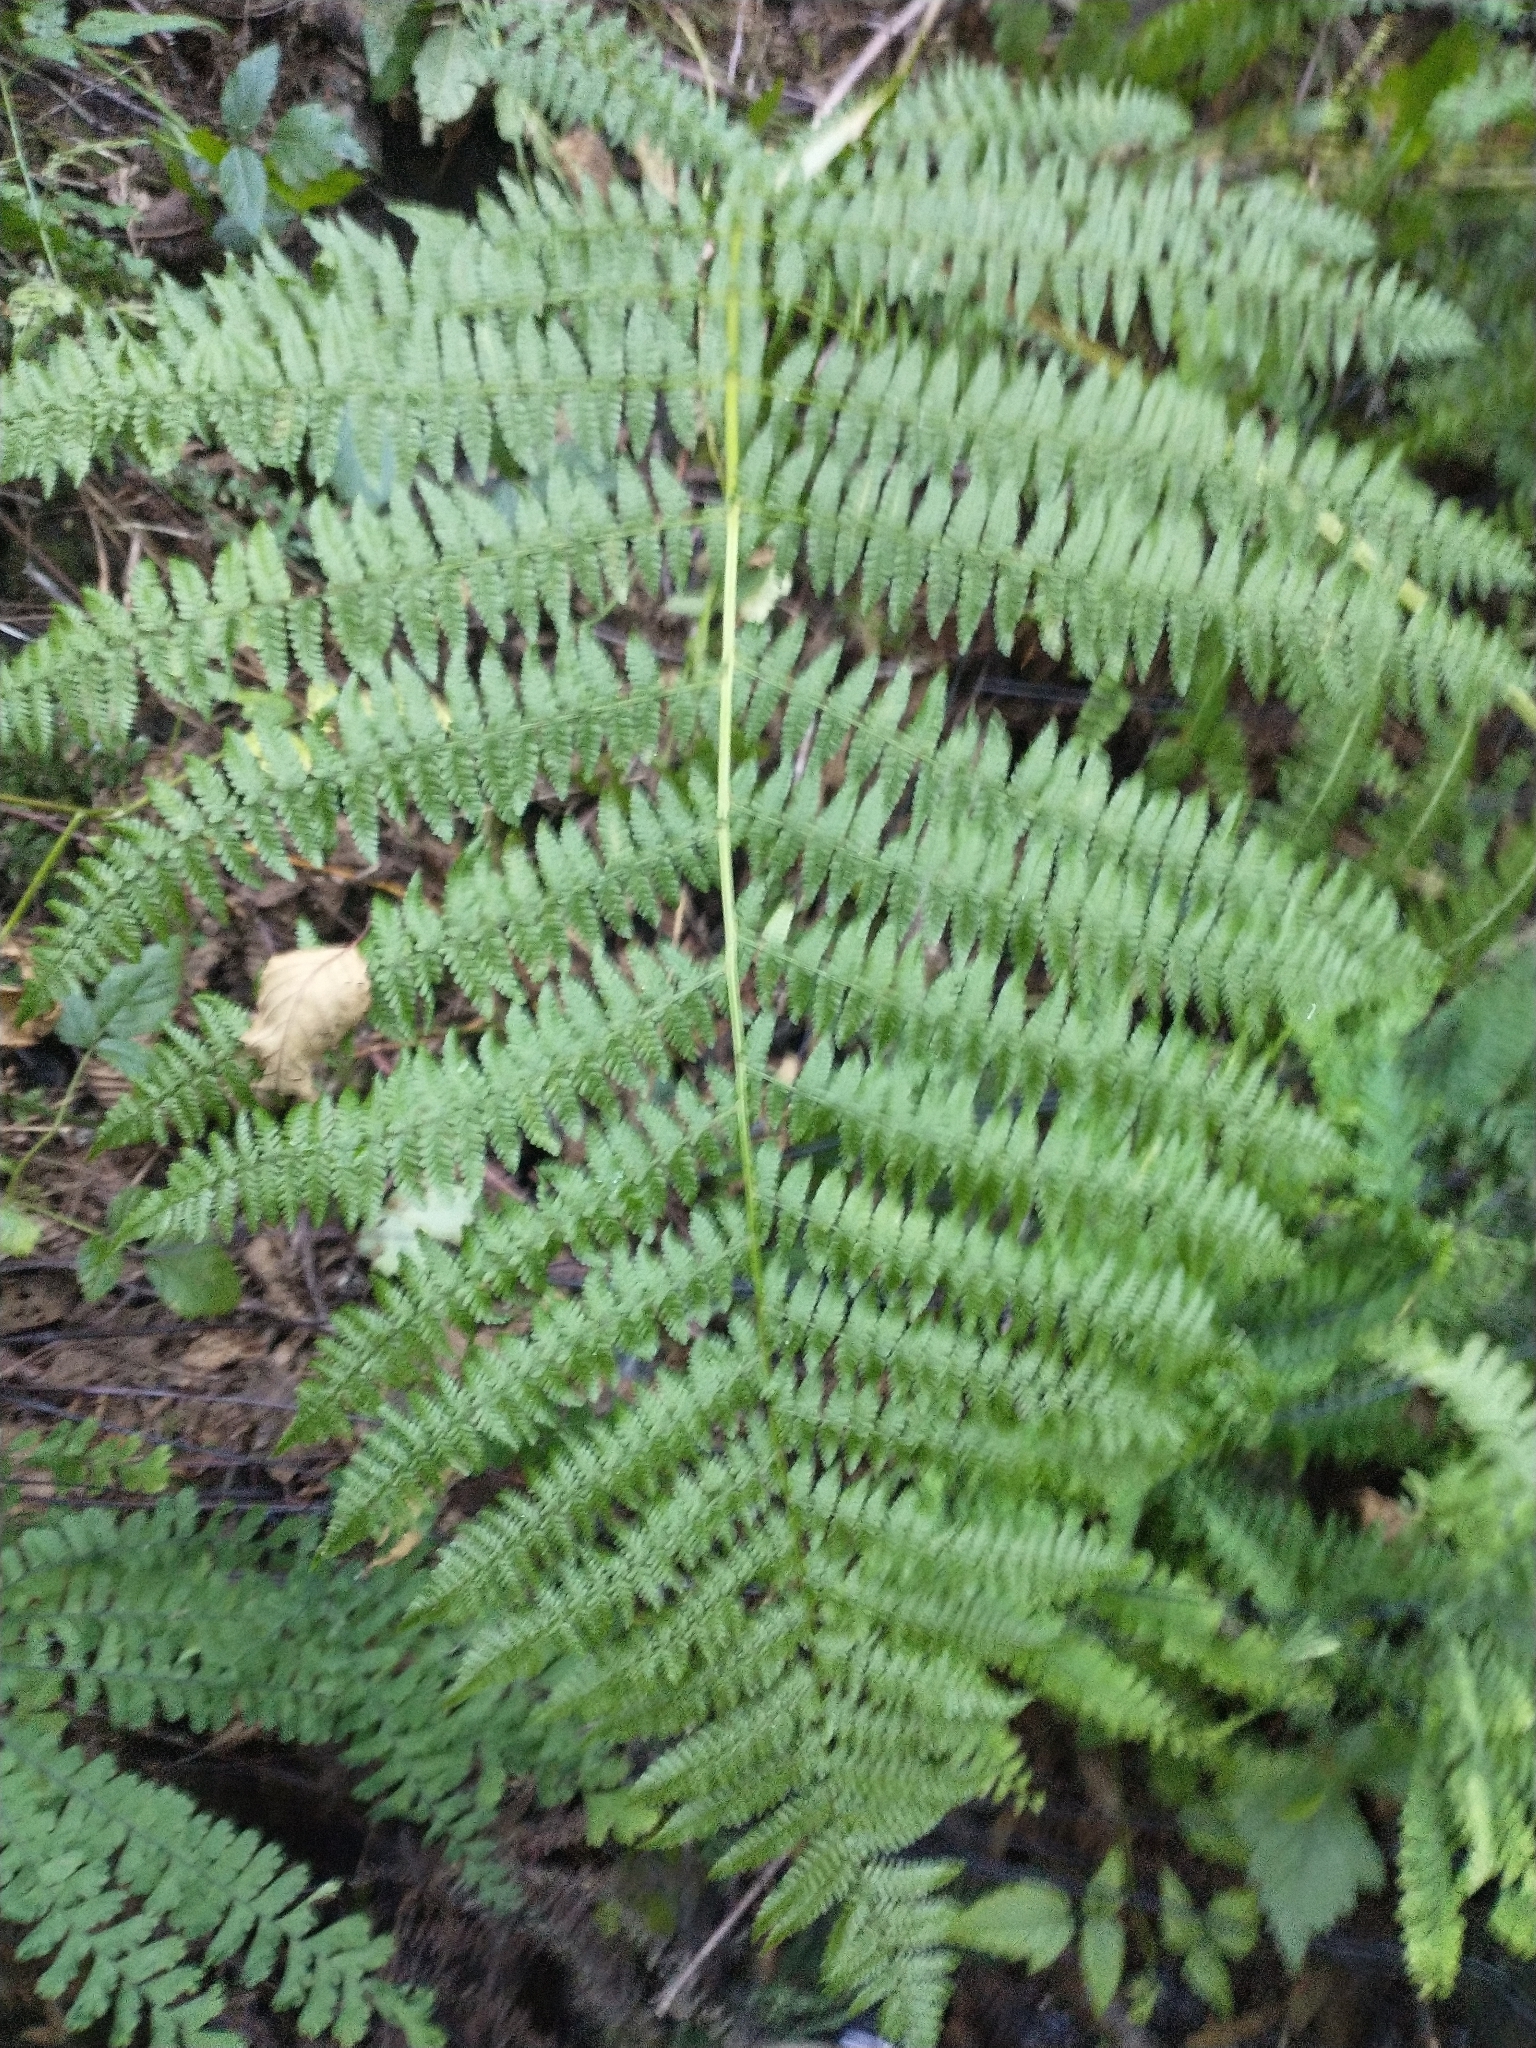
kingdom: Plantae
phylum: Tracheophyta
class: Polypodiopsida
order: Polypodiales
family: Athyriaceae
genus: Athyrium
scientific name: Athyrium filix-femina
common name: Lady fern
